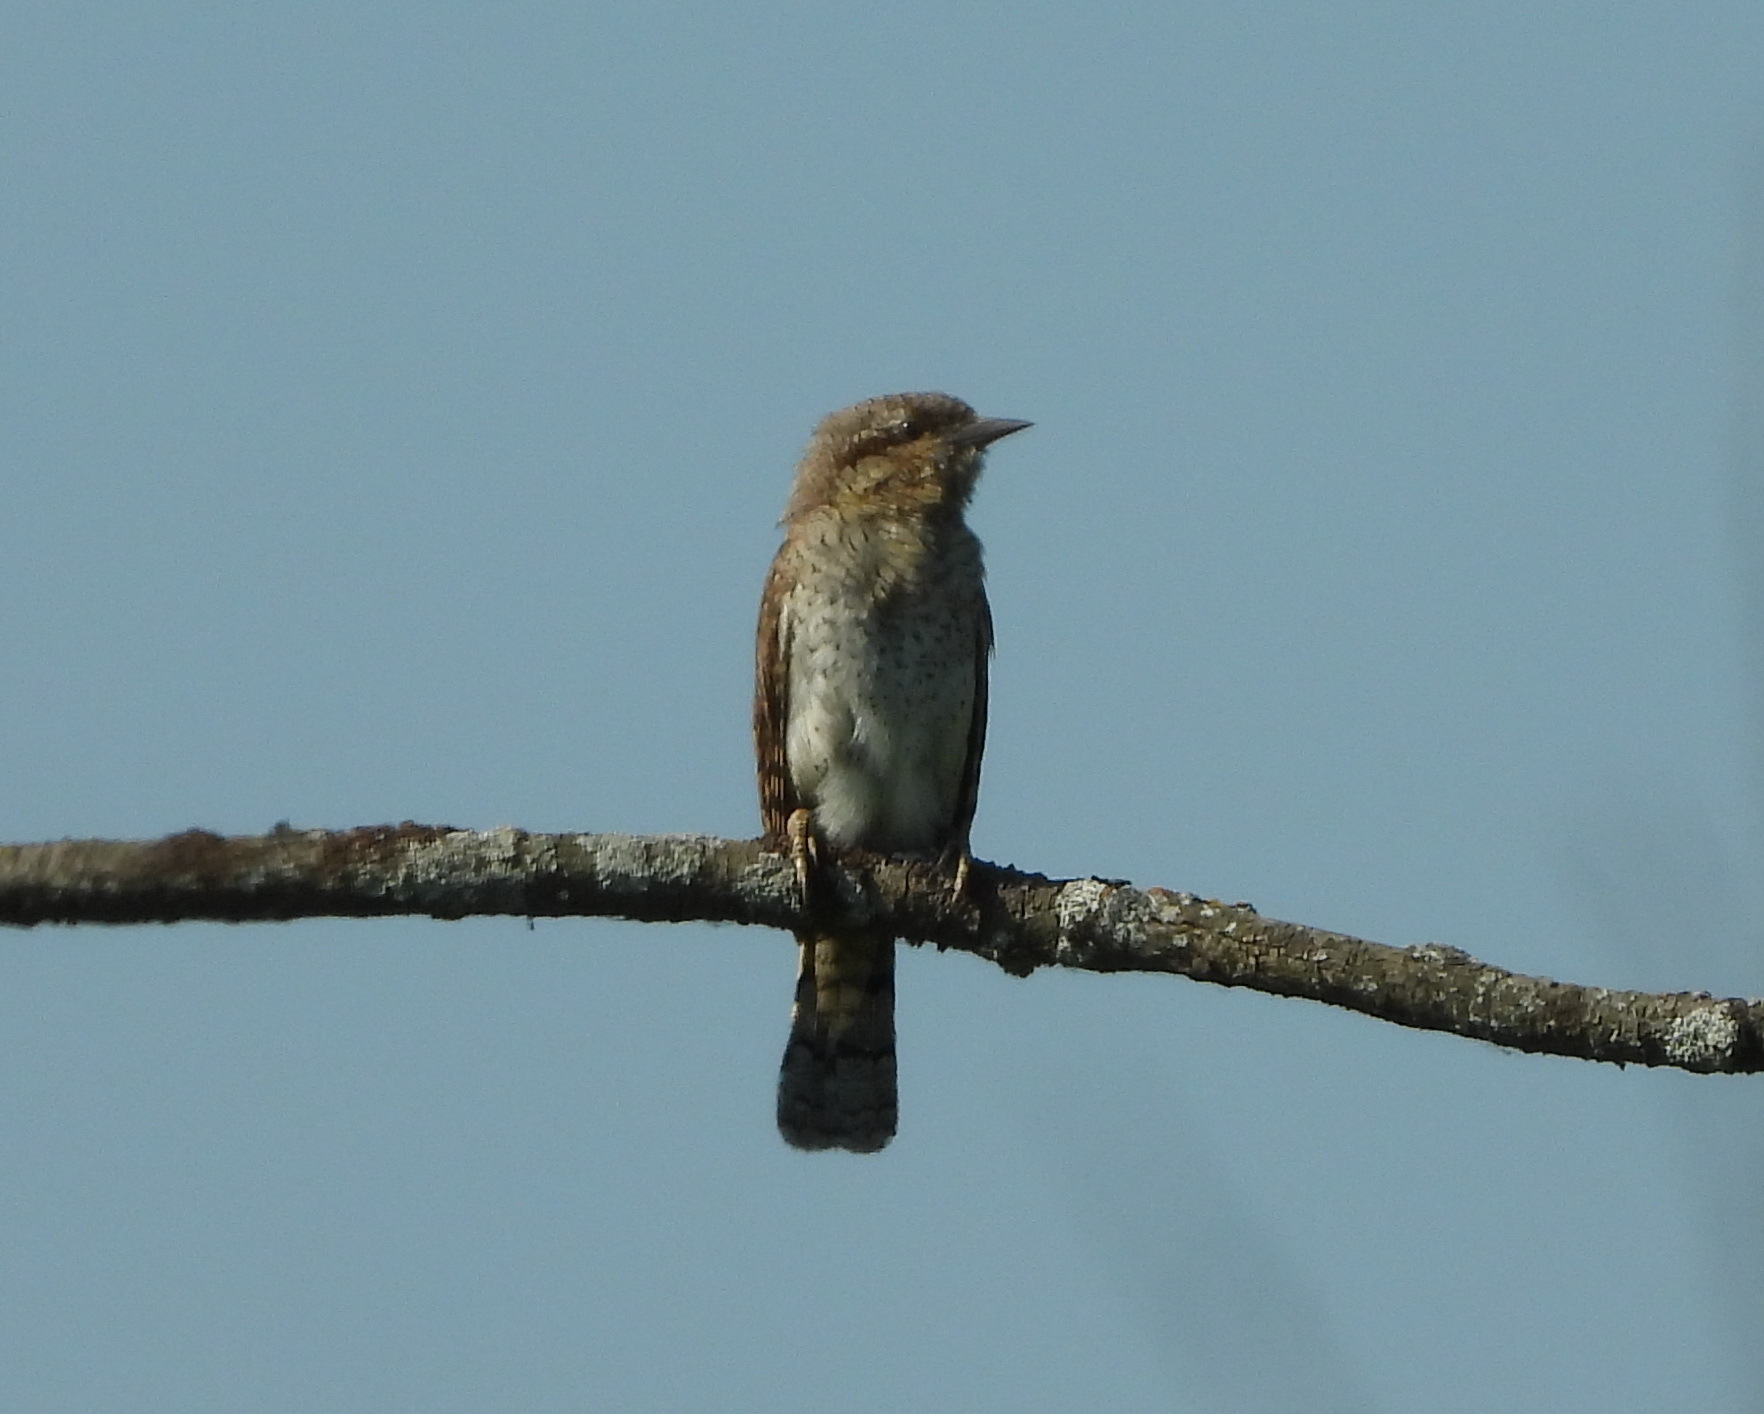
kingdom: Animalia
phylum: Chordata
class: Aves
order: Piciformes
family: Picidae
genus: Jynx
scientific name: Jynx torquilla
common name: Eurasian wryneck
